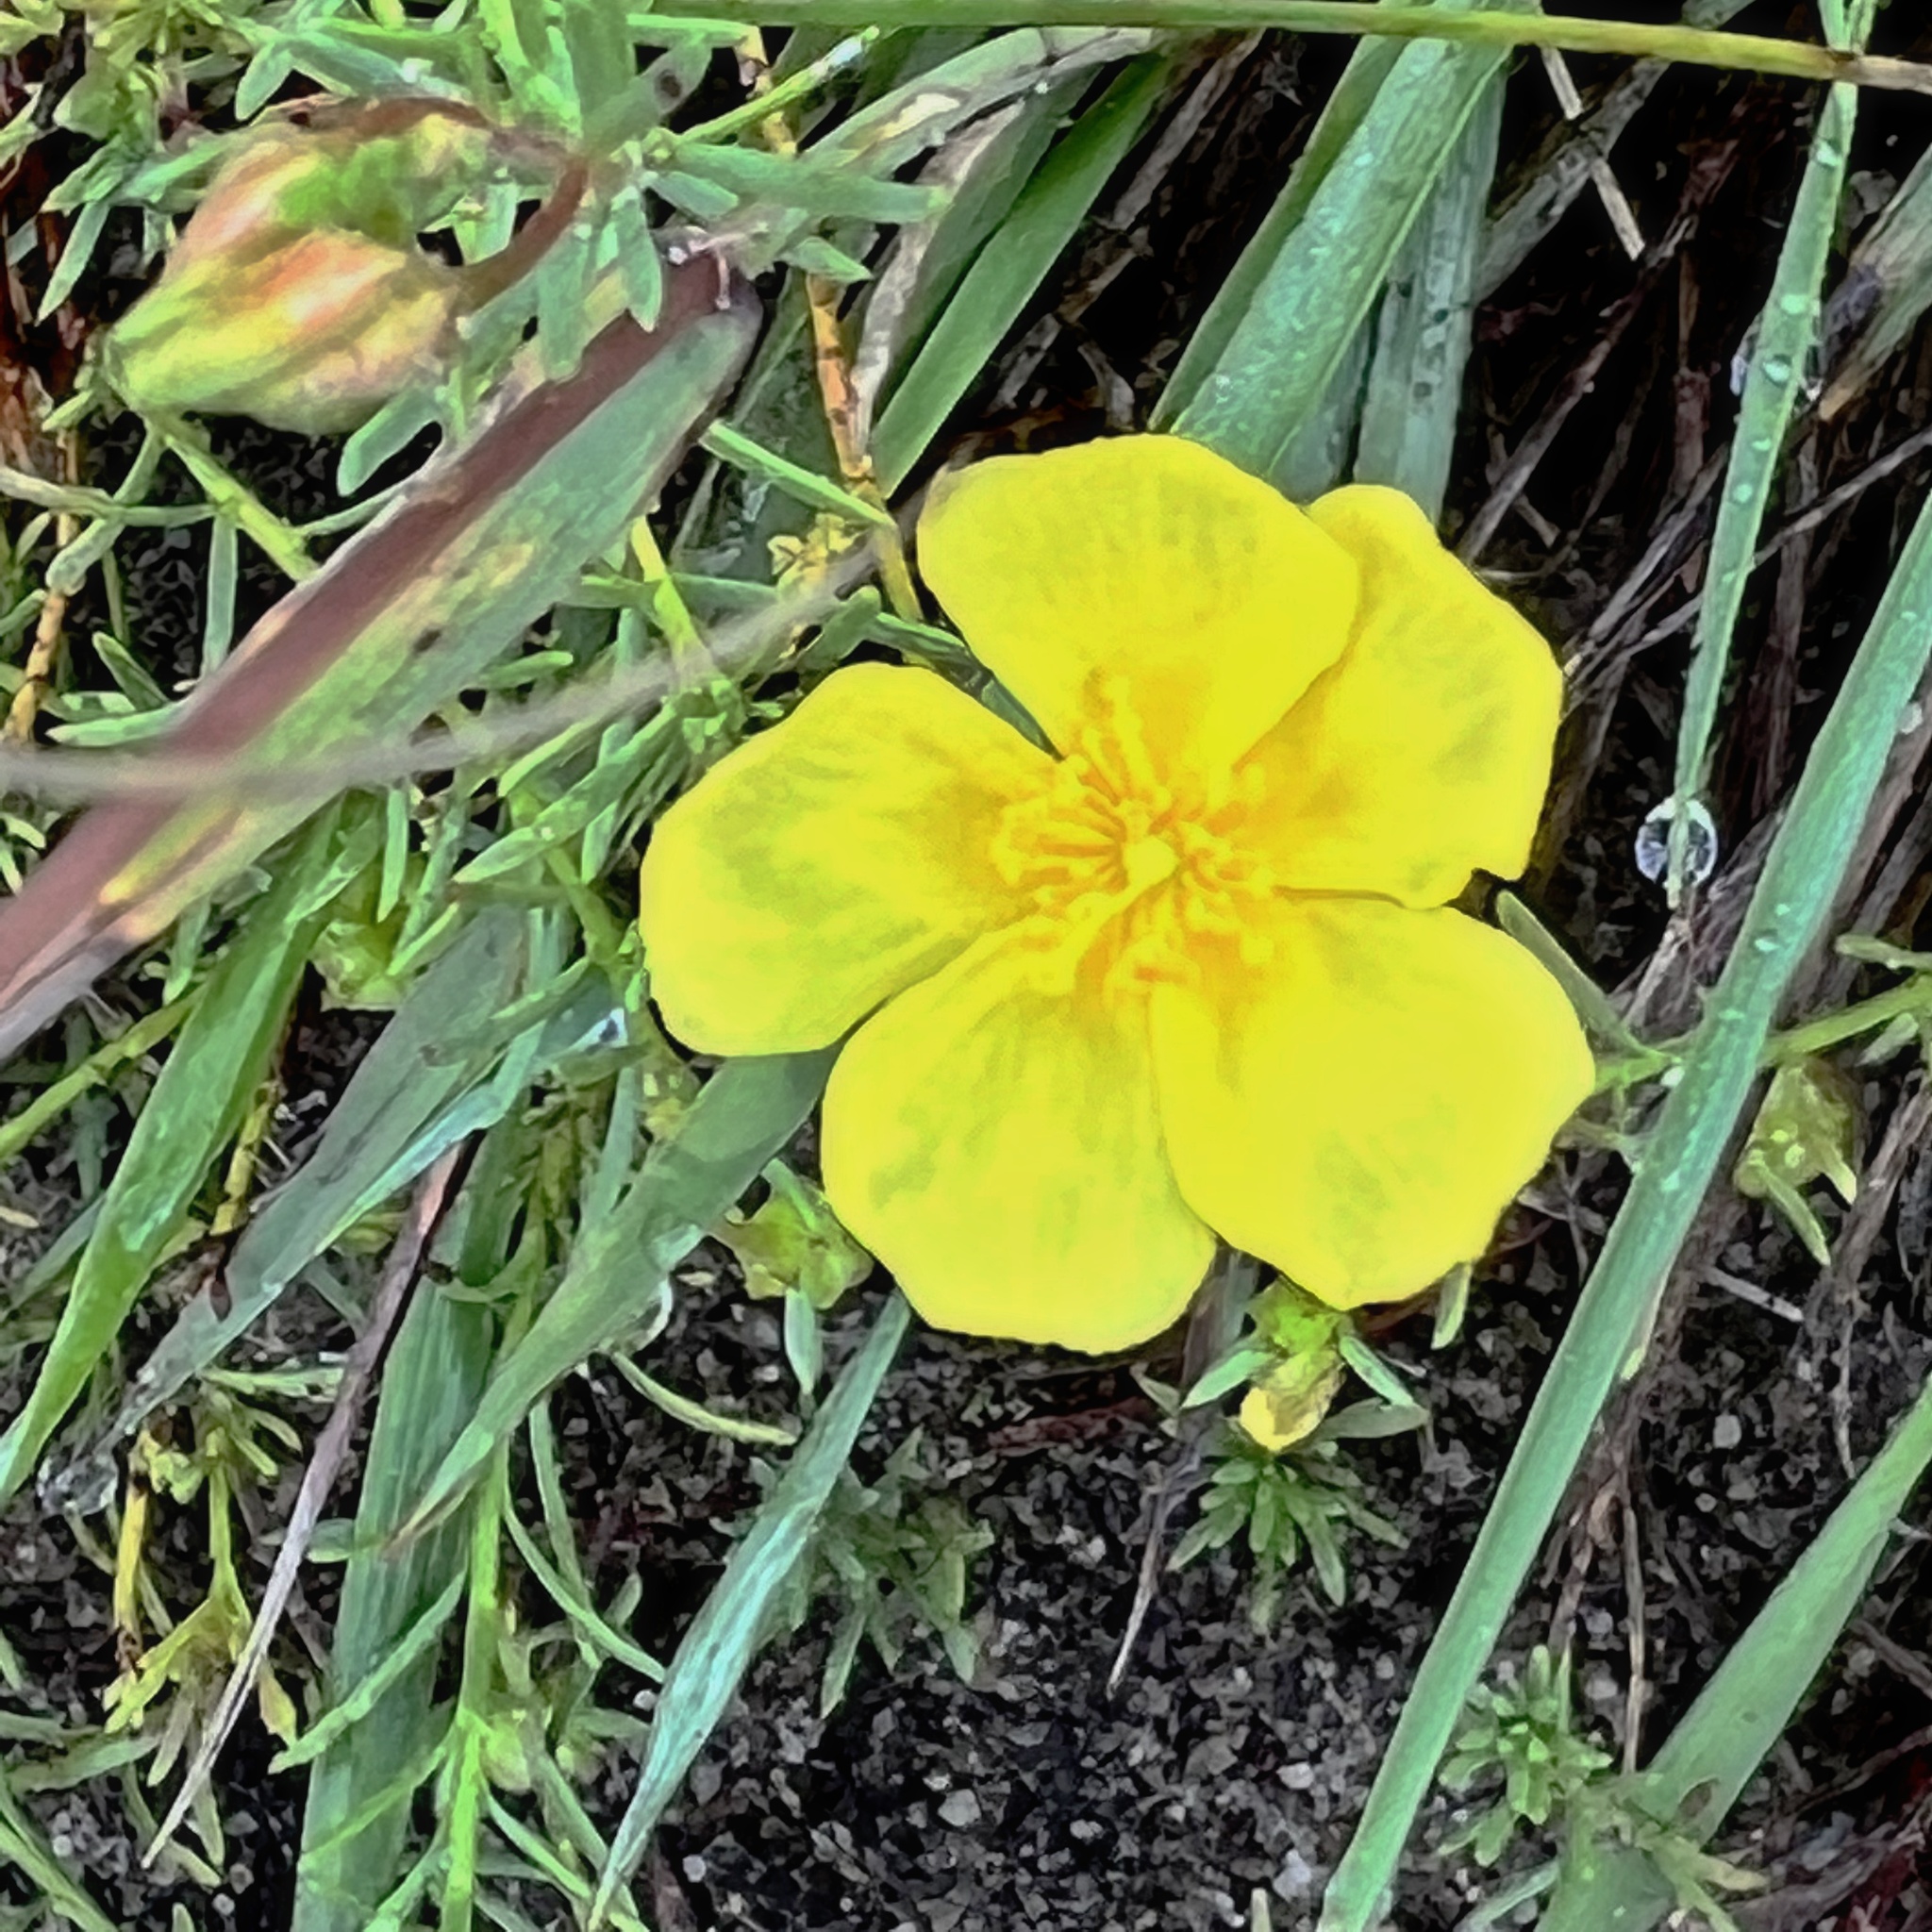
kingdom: Plantae
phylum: Tracheophyta
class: Magnoliopsida
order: Malvales
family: Cistaceae
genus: Fumana
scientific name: Fumana procumbens
